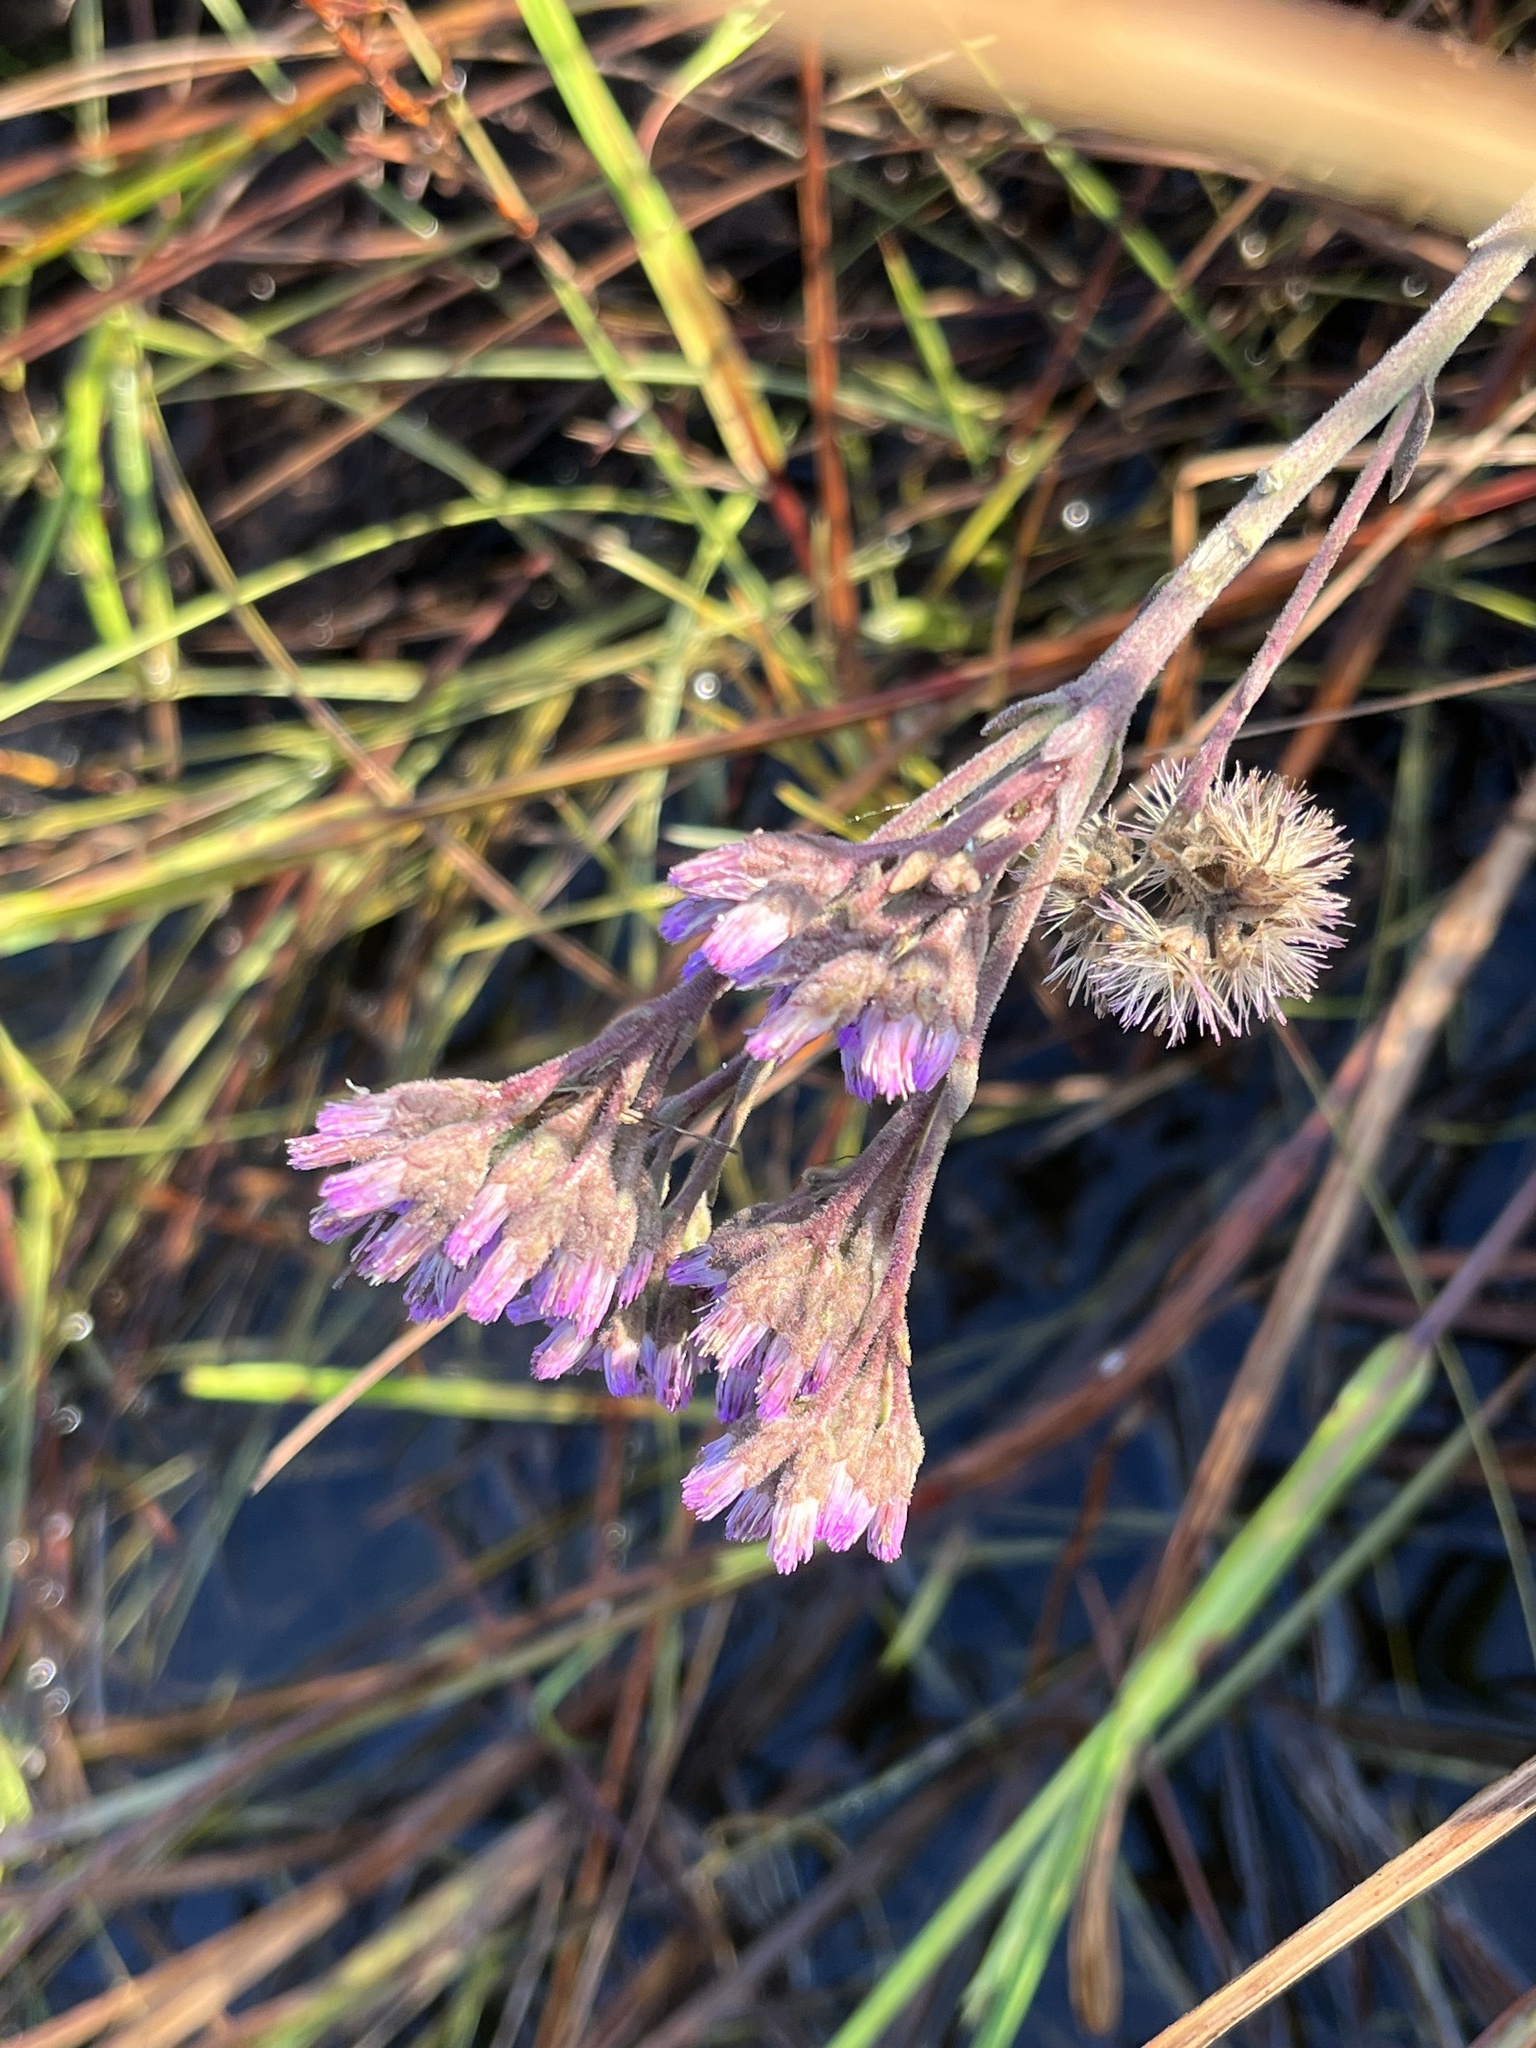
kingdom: Plantae
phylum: Tracheophyta
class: Magnoliopsida
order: Asterales
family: Asteraceae
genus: Carphephorus
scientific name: Carphephorus carnosus
